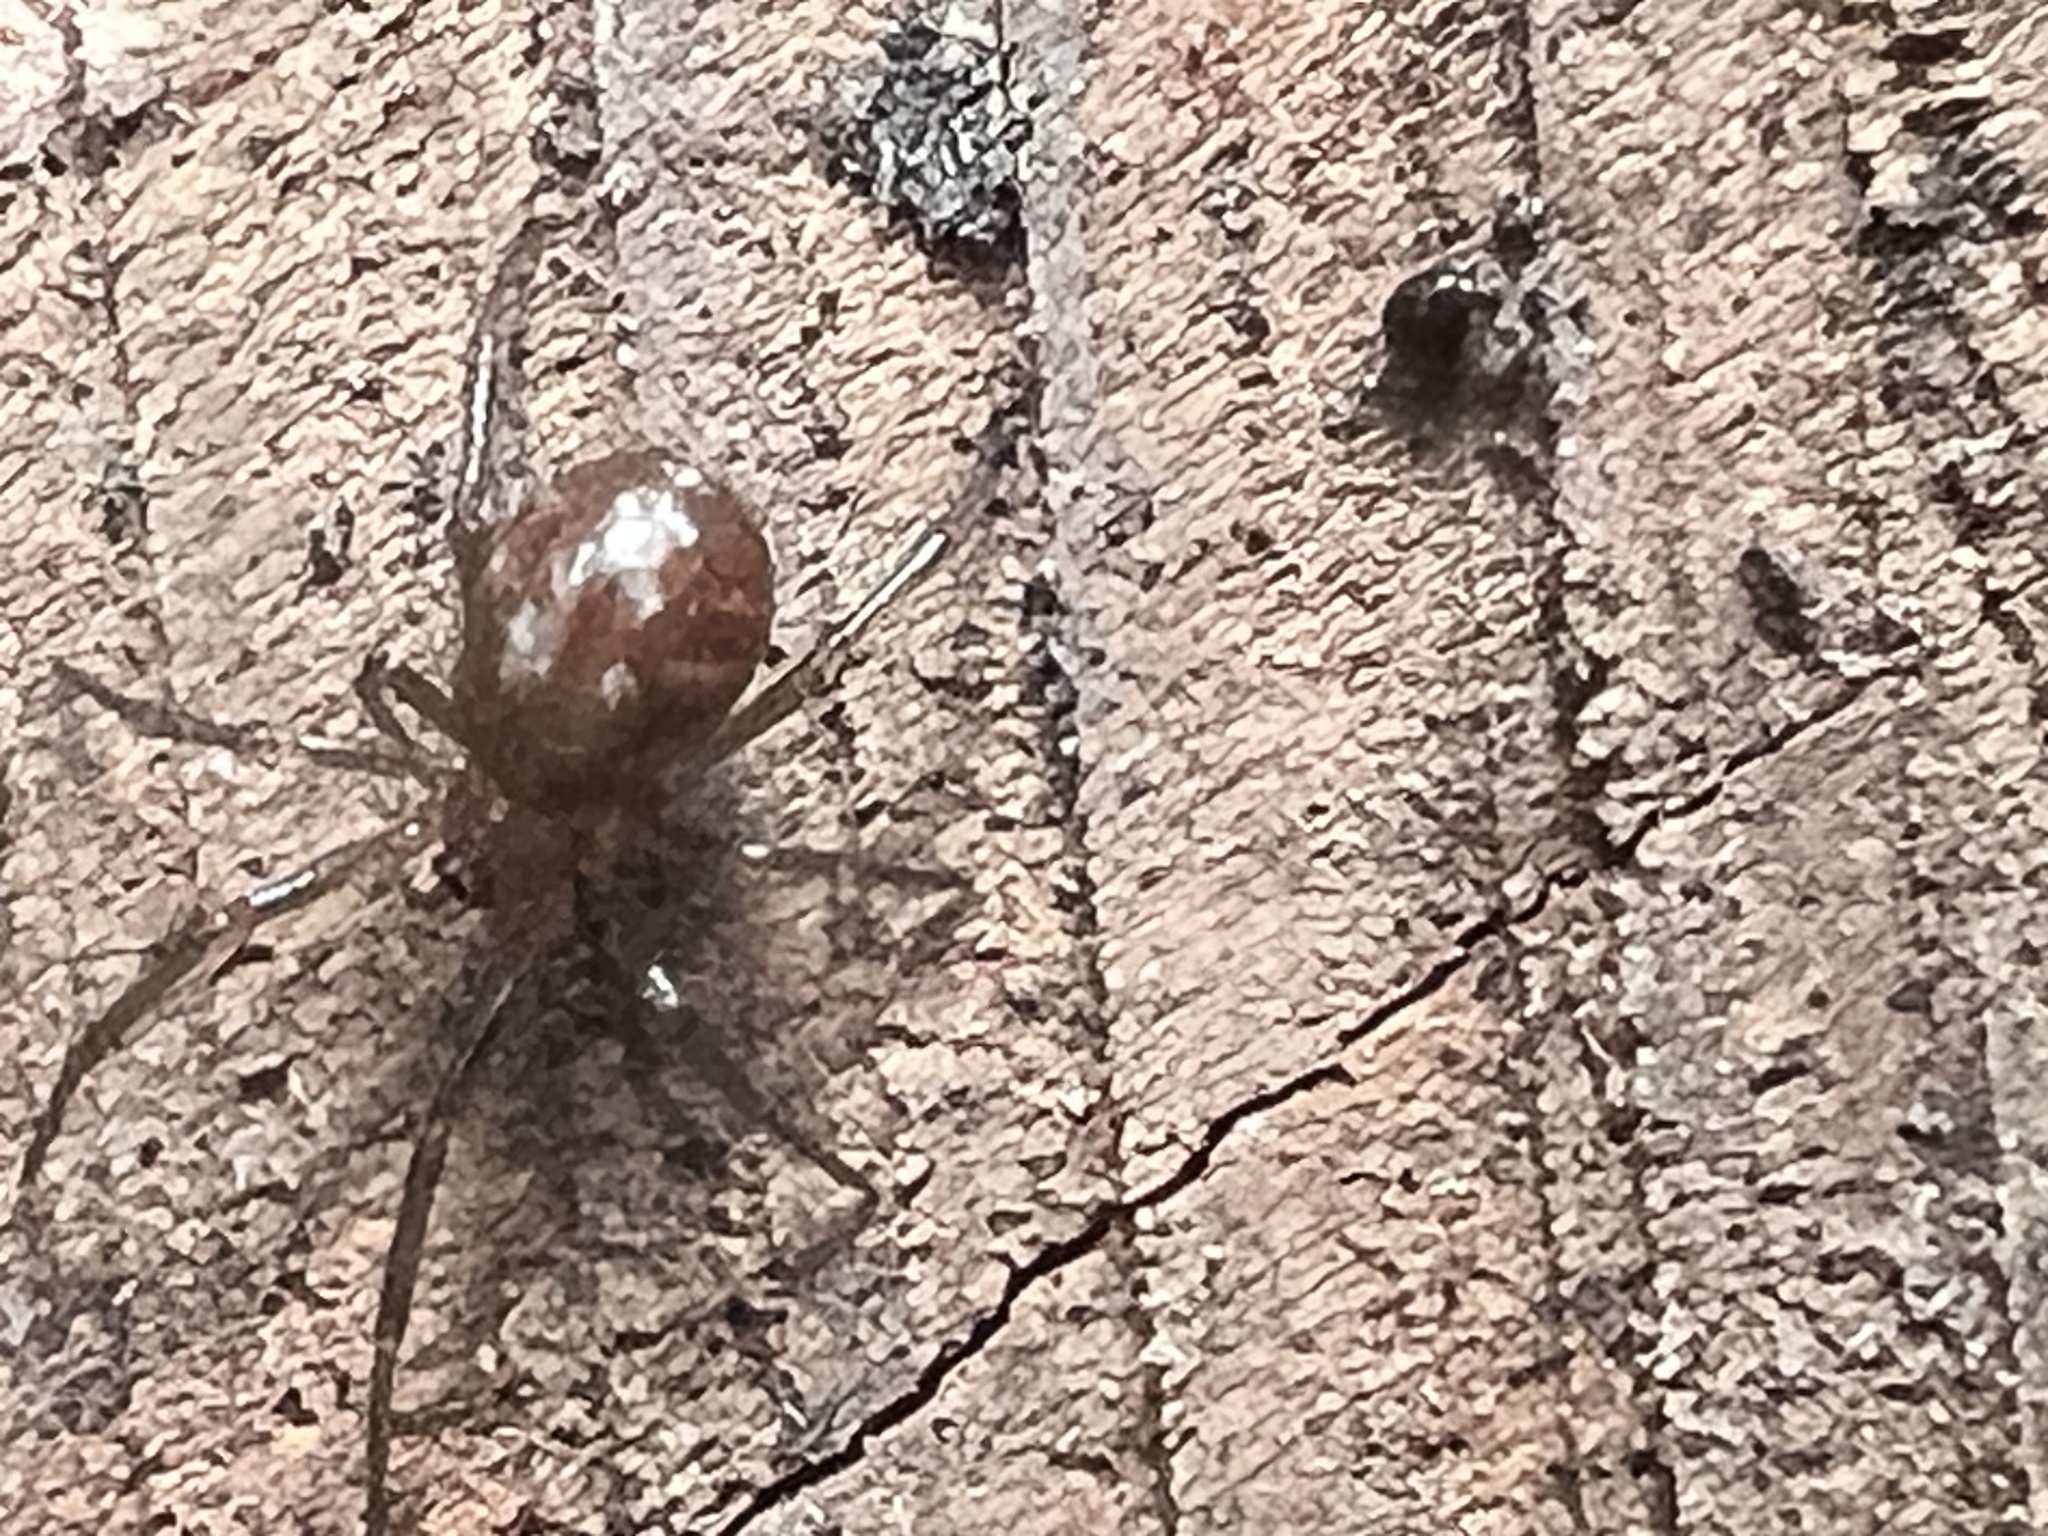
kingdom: Animalia
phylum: Arthropoda
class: Arachnida
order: Araneae
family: Theridiidae
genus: Steatoda
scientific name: Steatoda capensis
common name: Cobweb weaver
